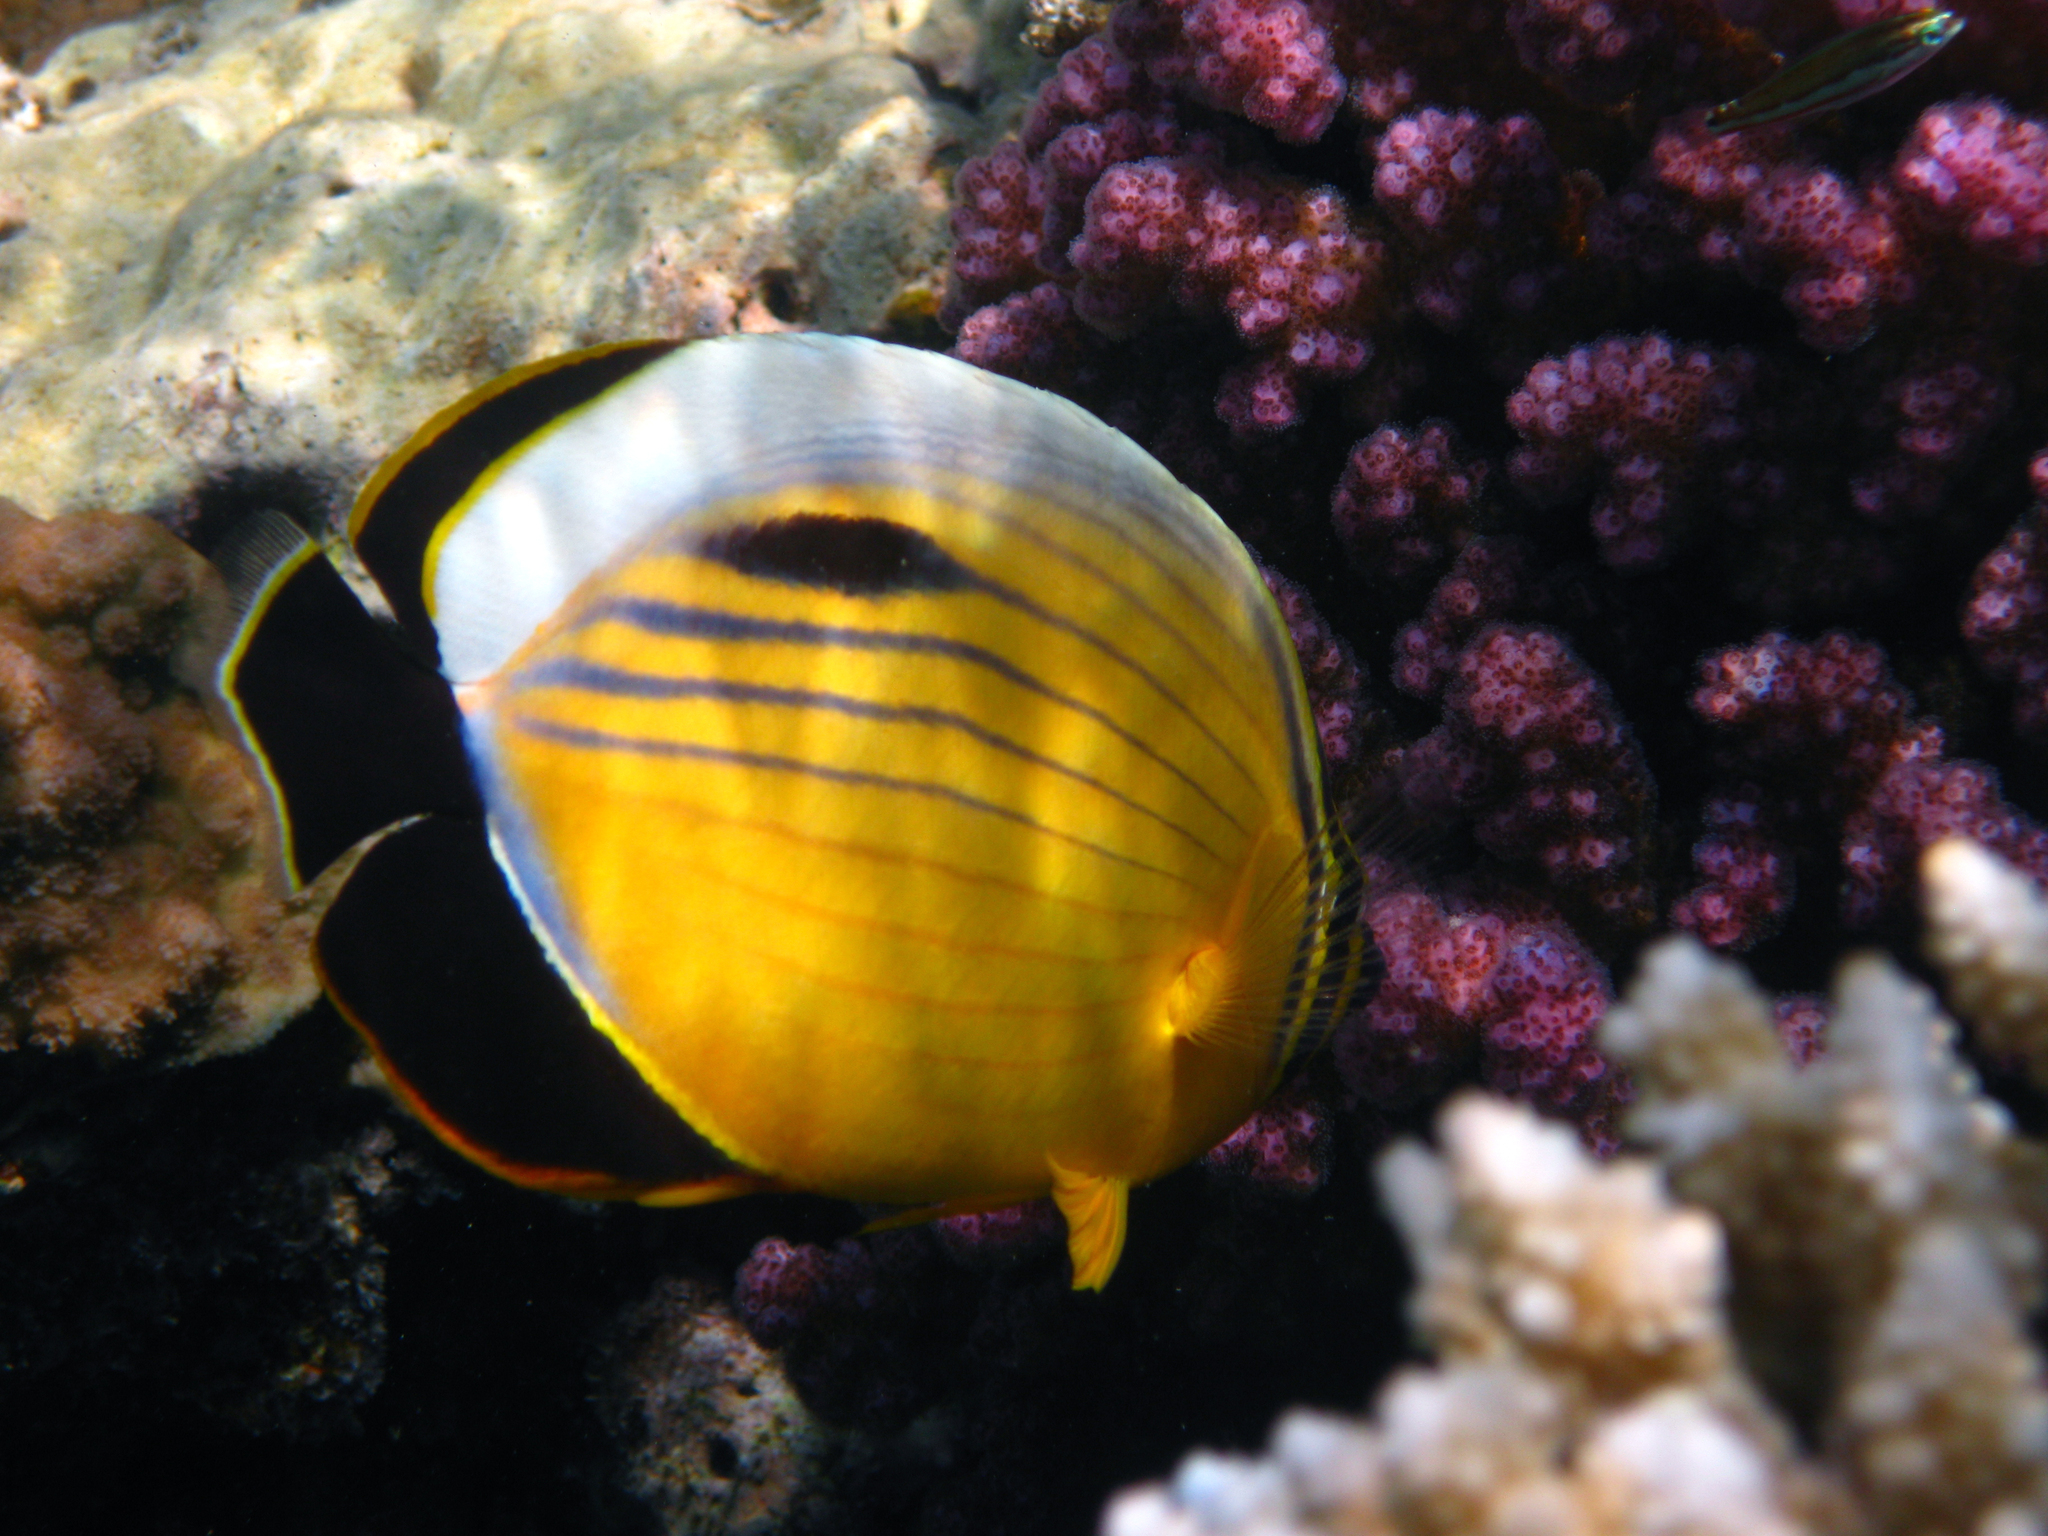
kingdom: Animalia
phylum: Chordata
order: Perciformes
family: Chaetodontidae
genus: Chaetodon
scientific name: Chaetodon austriacus
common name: Exquisite butterflyfish
